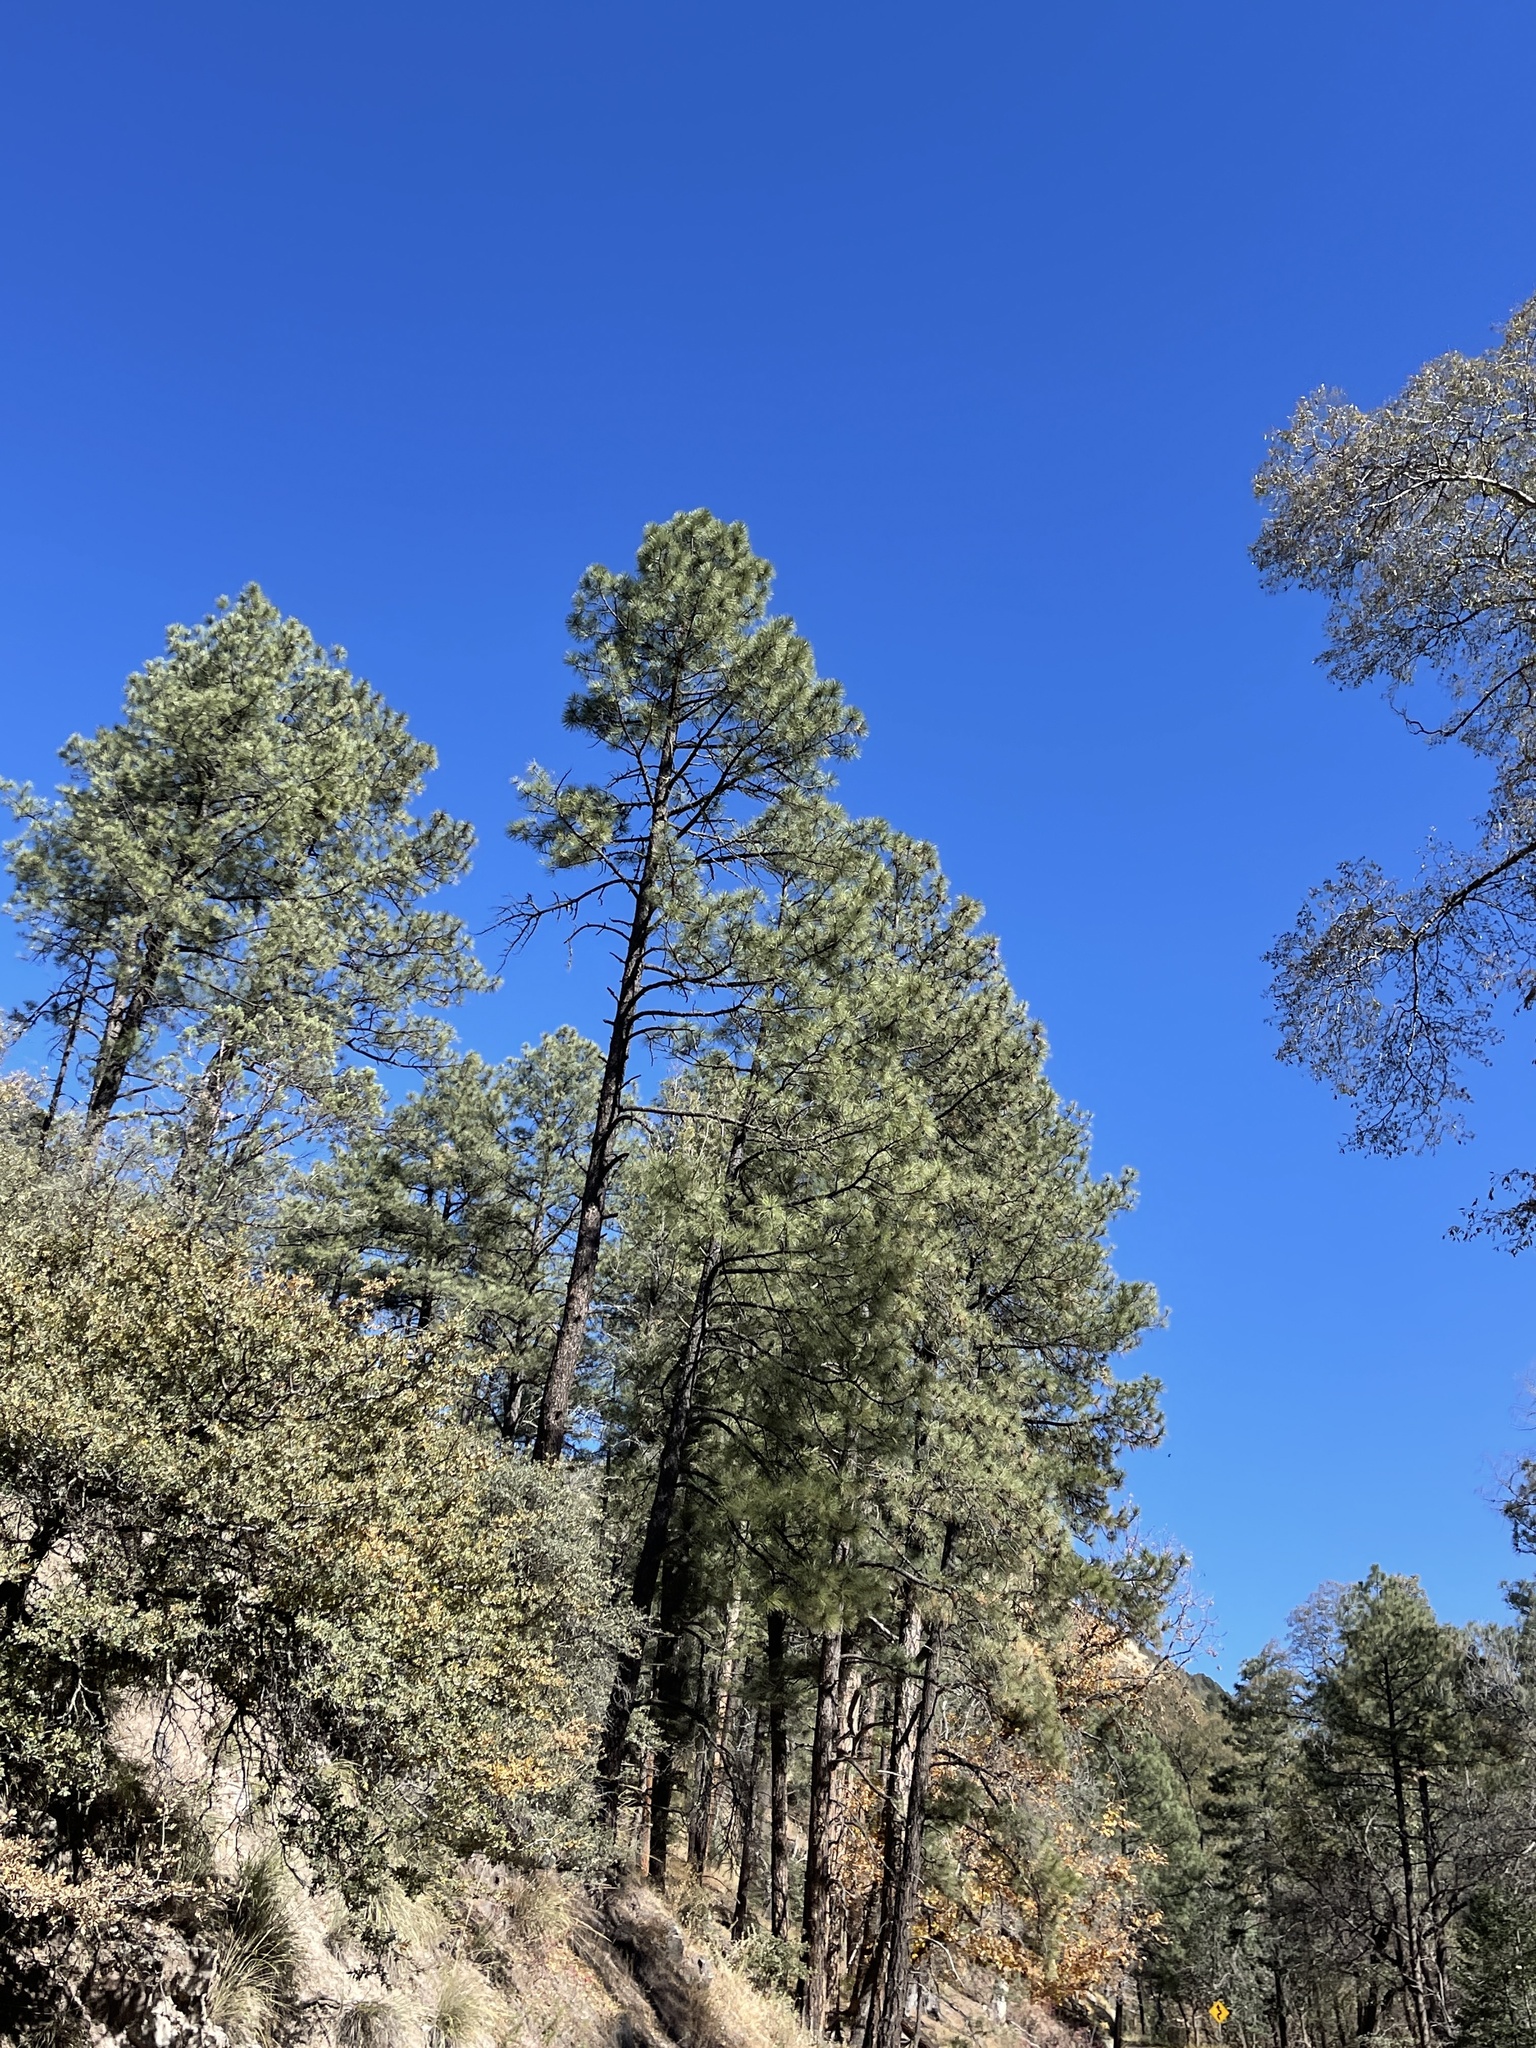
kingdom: Plantae
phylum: Tracheophyta
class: Pinopsida
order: Pinales
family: Pinaceae
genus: Pinus
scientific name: Pinus ponderosa
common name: Western yellow-pine
